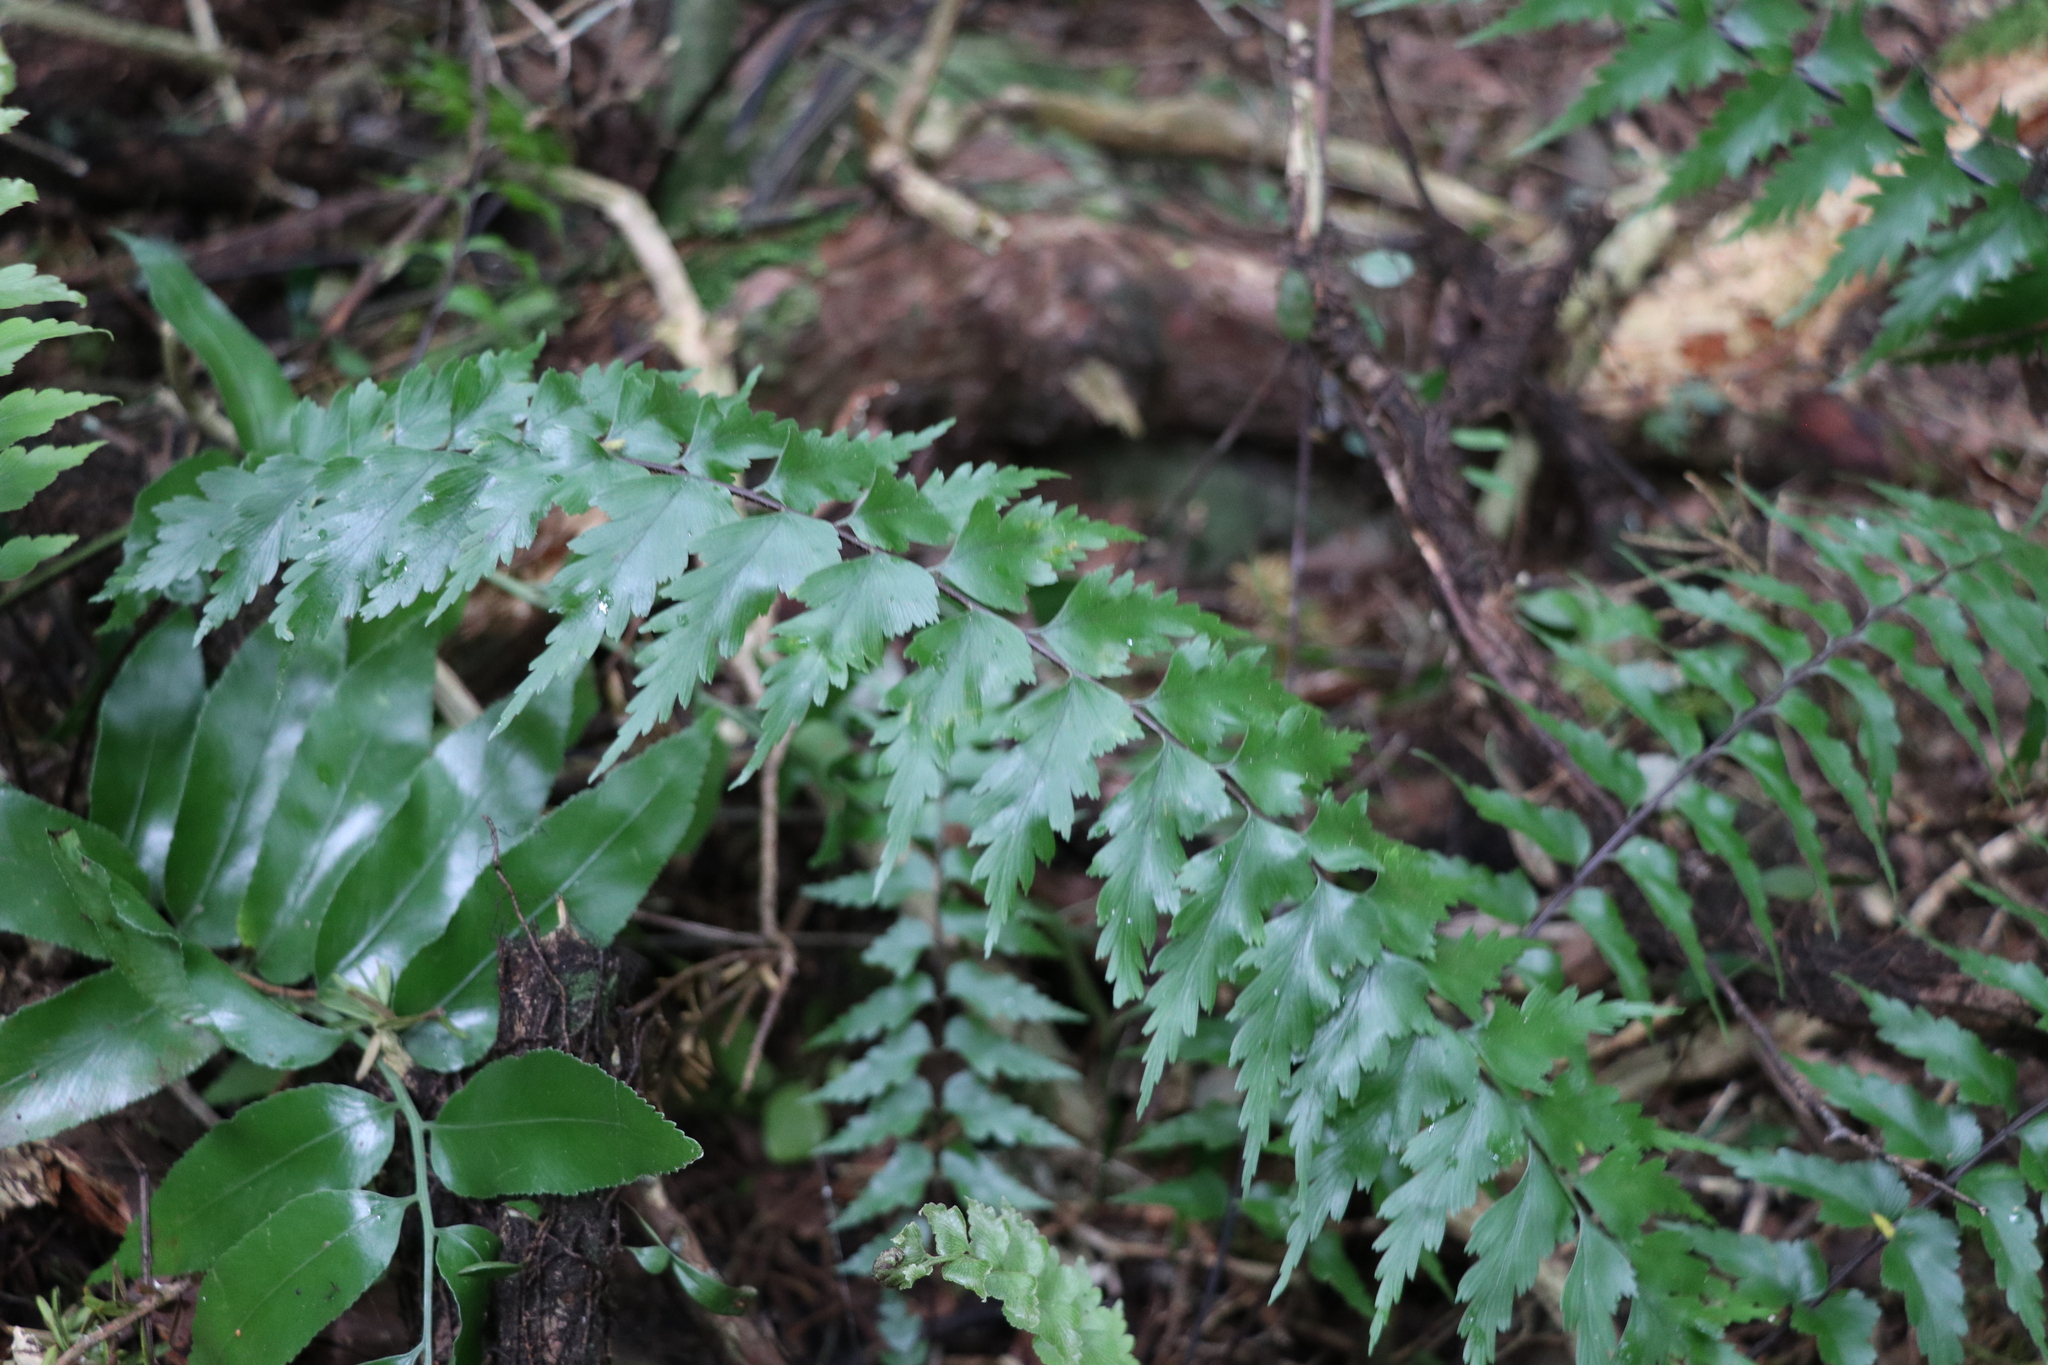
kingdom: Plantae
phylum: Tracheophyta
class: Polypodiopsida
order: Polypodiales
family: Aspleniaceae
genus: Asplenium
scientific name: Asplenium polyodon
